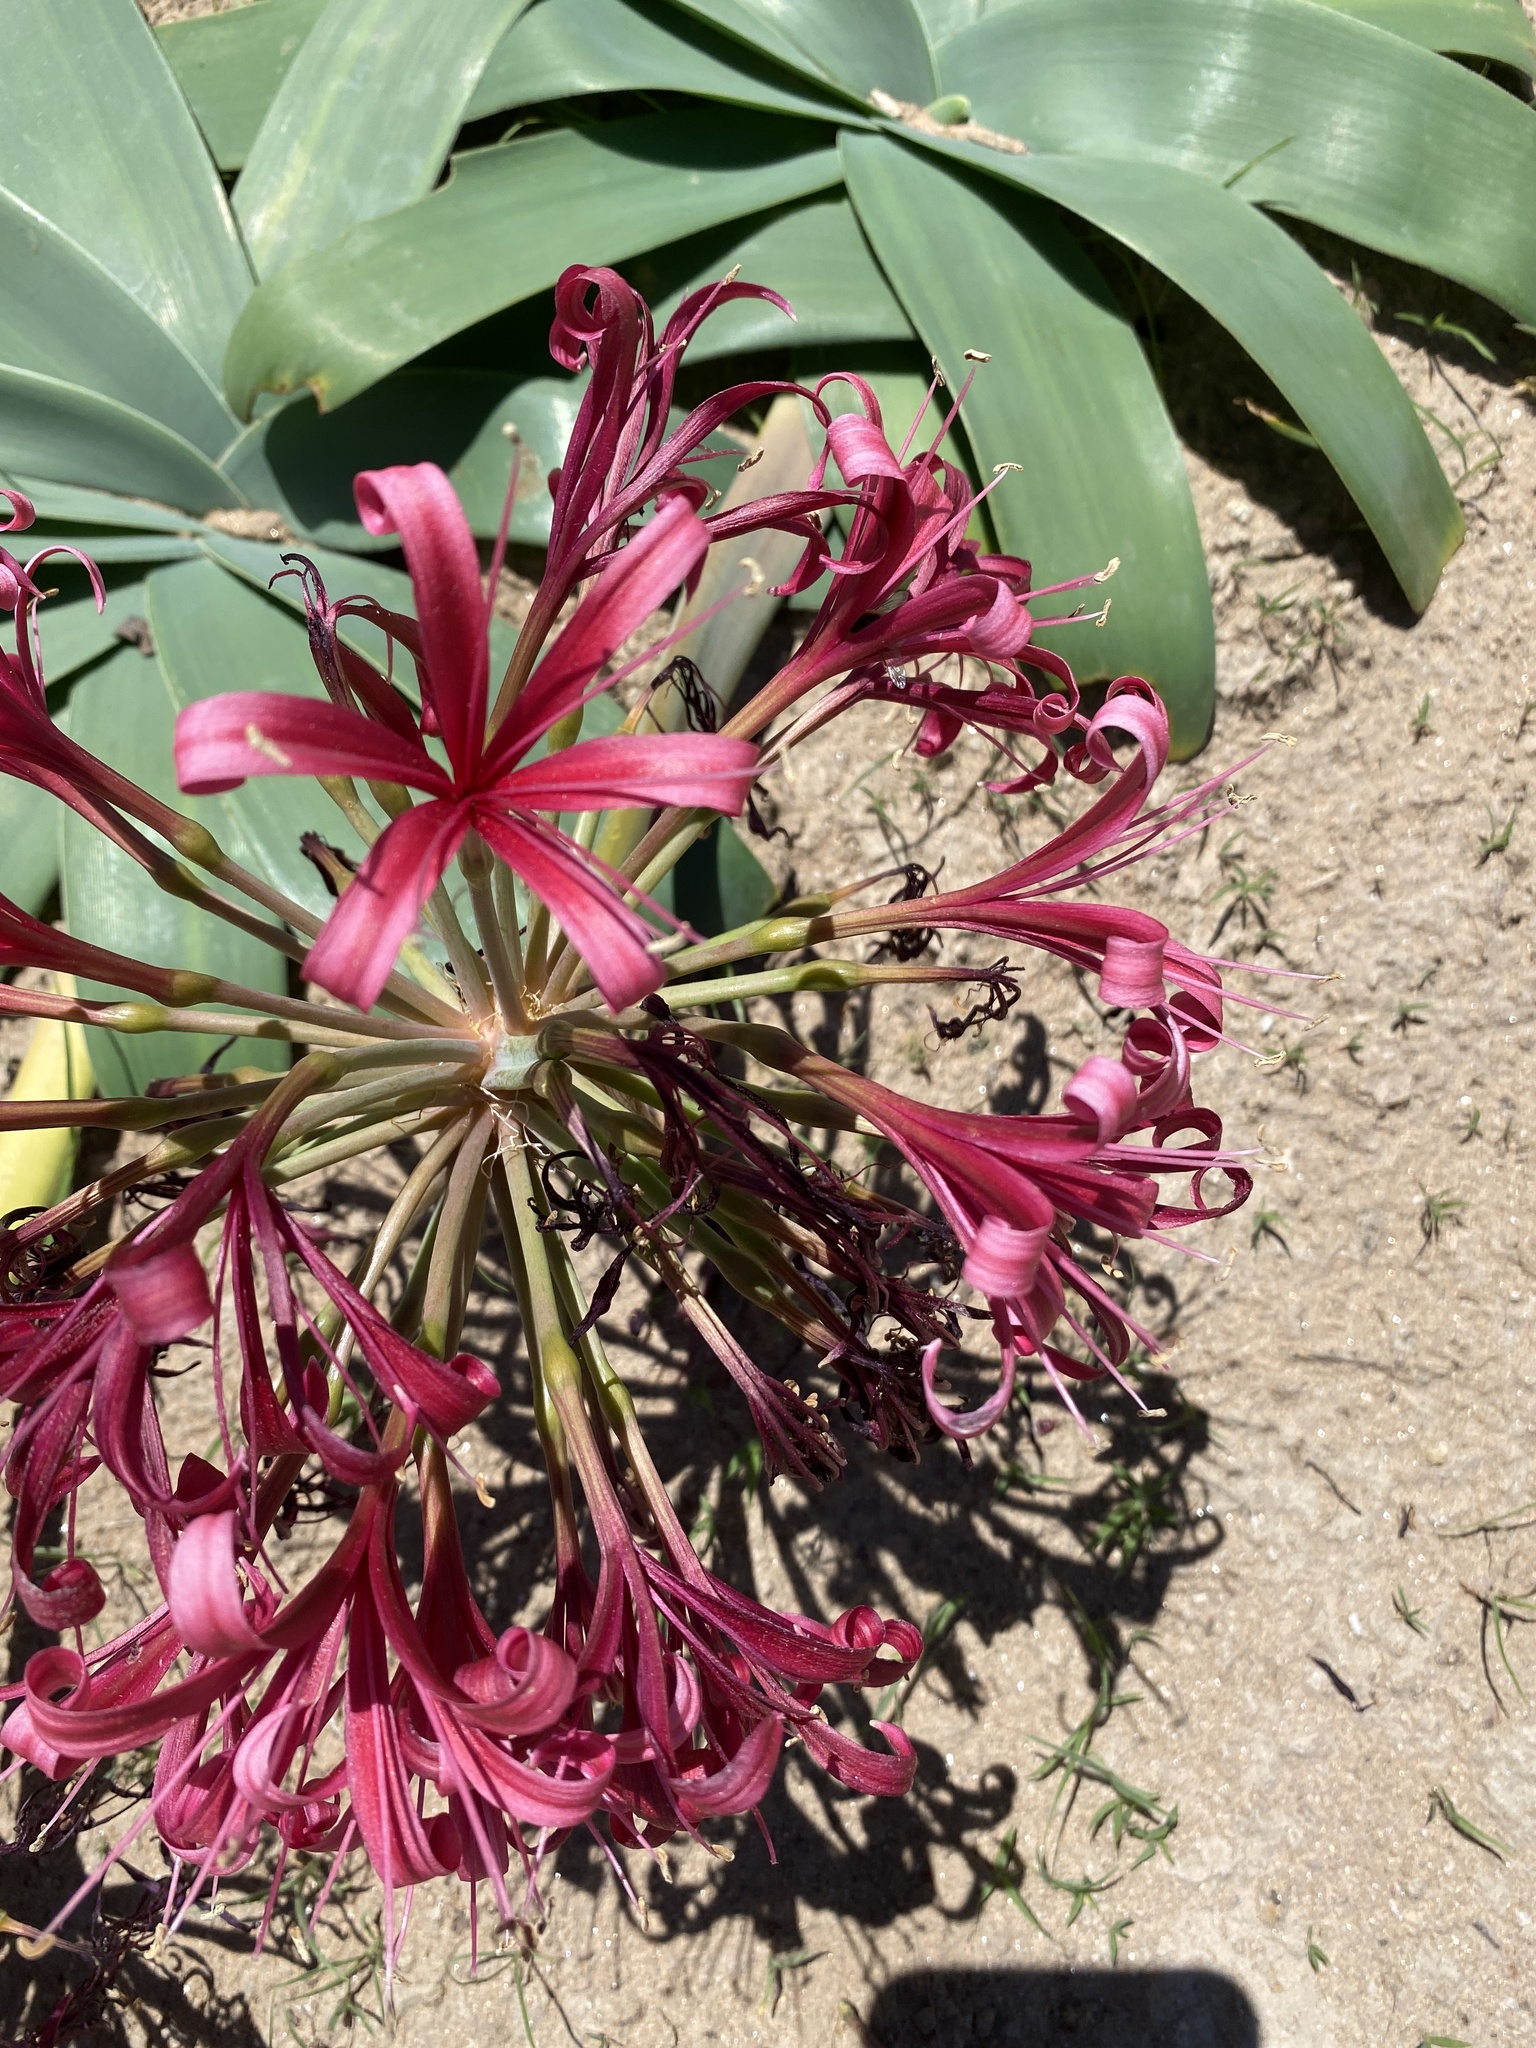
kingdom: Plantae
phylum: Tracheophyta
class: Liliopsida
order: Asparagales
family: Amaryllidaceae
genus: Ammocharis
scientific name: Ammocharis coranica
